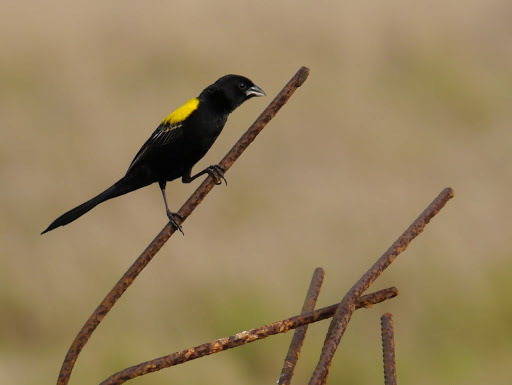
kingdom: Animalia
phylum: Chordata
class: Aves
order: Passeriformes
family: Ploceidae
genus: Euplectes
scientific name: Euplectes macroura
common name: Yellow-mantled widowbird
